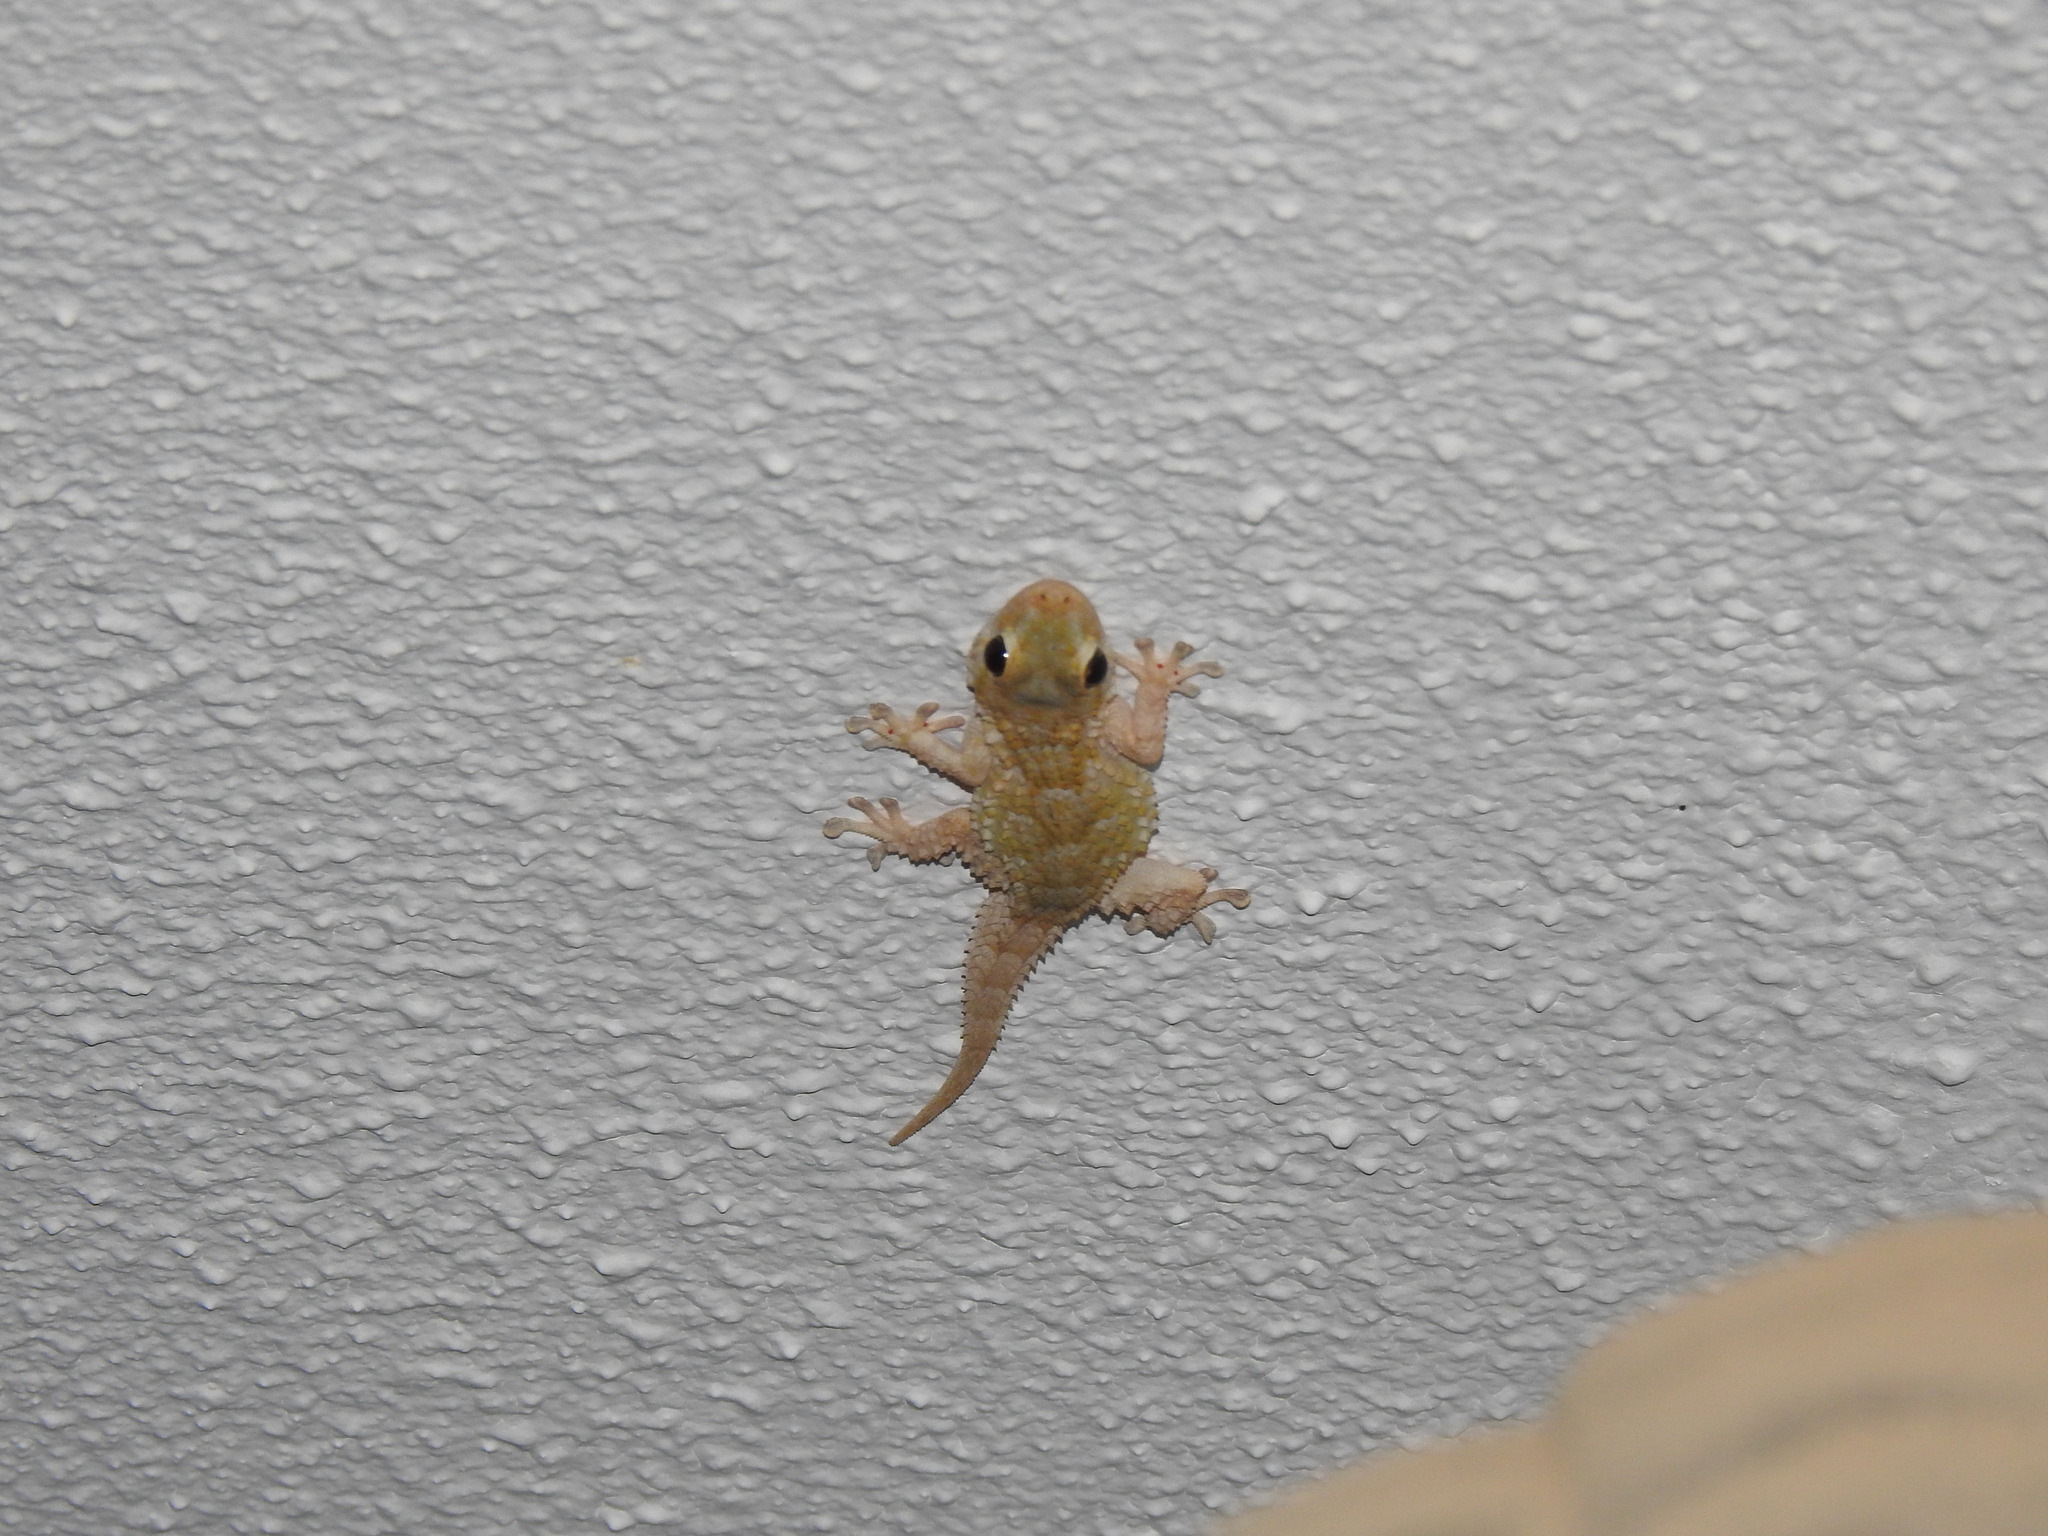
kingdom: Animalia
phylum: Chordata
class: Squamata
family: Phyllodactylidae
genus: Tarentola
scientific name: Tarentola mauritanica
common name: Moorish gecko
